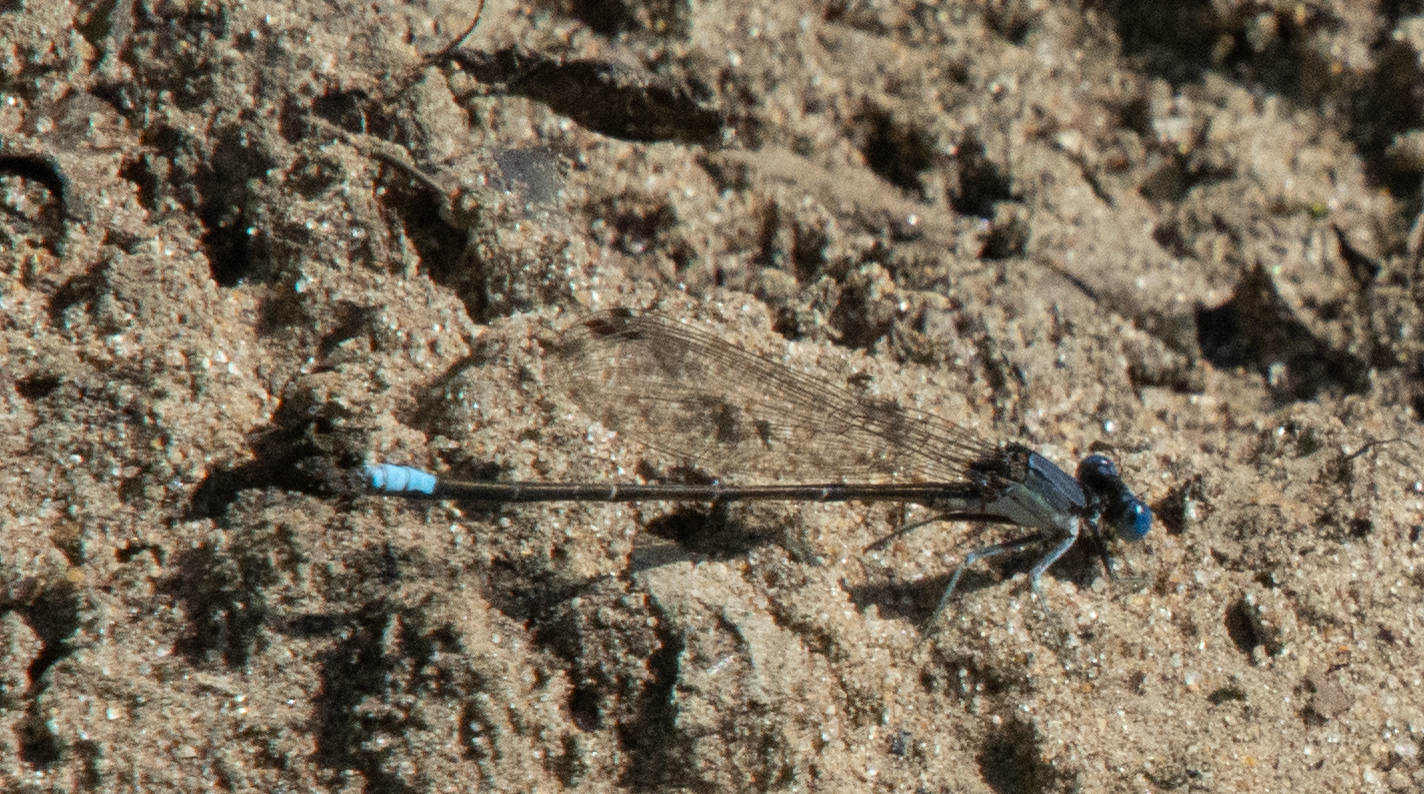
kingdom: Animalia
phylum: Arthropoda
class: Insecta
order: Odonata
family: Coenagrionidae
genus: Argia
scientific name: Argia apicalis
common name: Blue-fronted dancer
